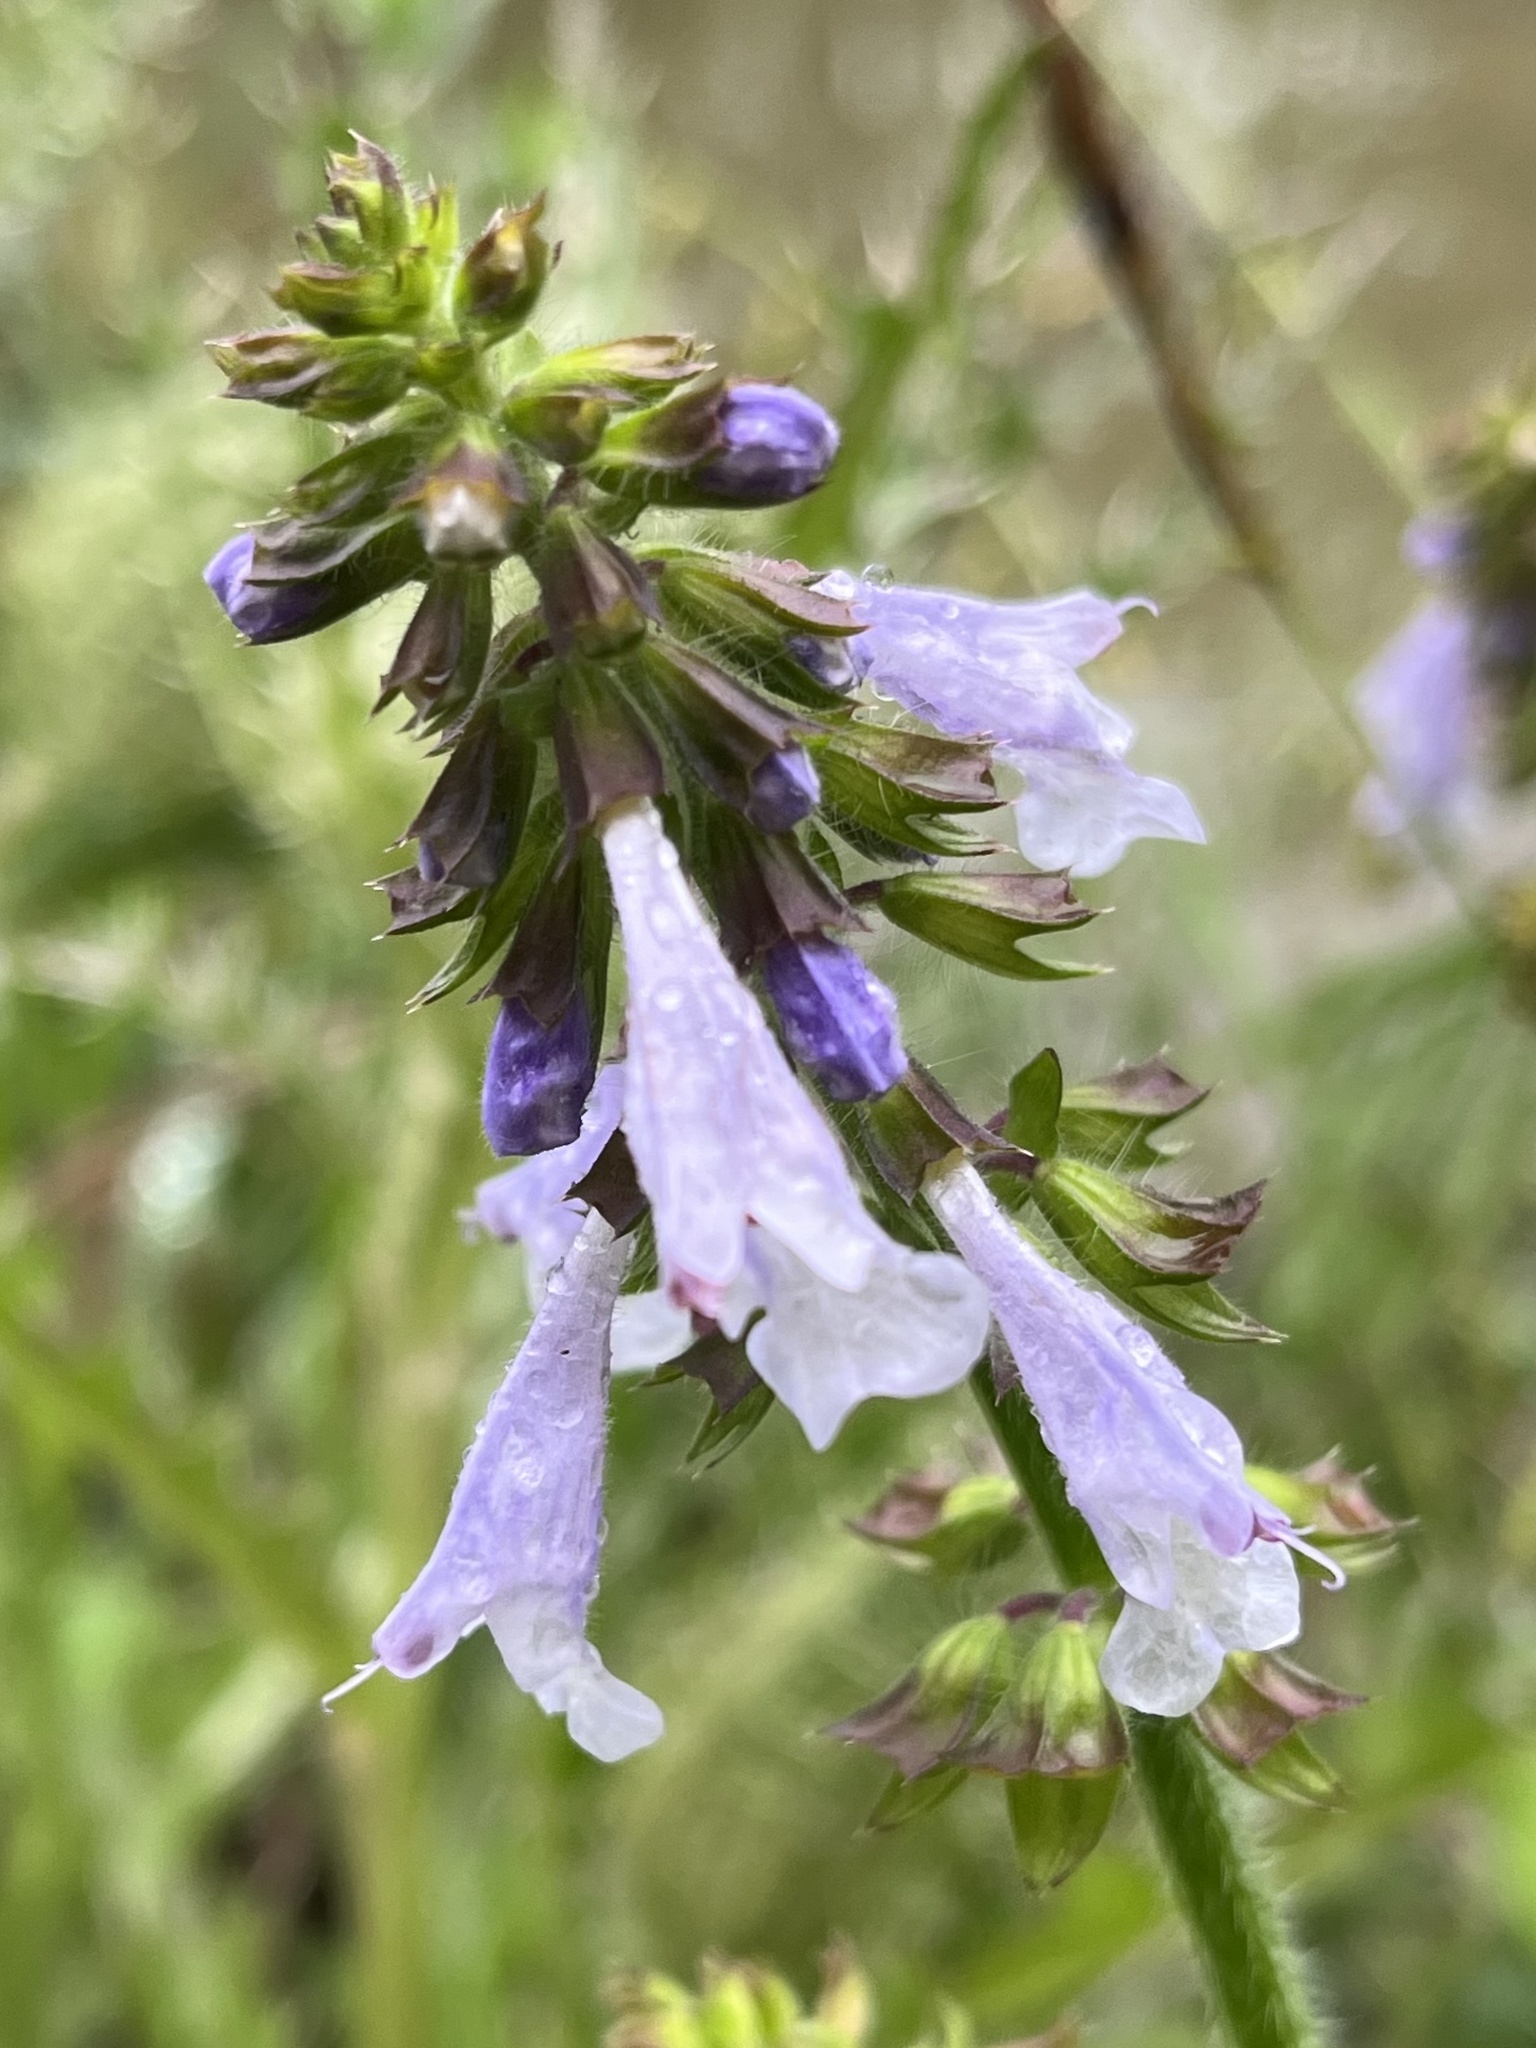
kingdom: Plantae
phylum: Tracheophyta
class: Magnoliopsida
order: Lamiales
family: Lamiaceae
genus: Salvia
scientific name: Salvia lyrata
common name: Cancerweed
